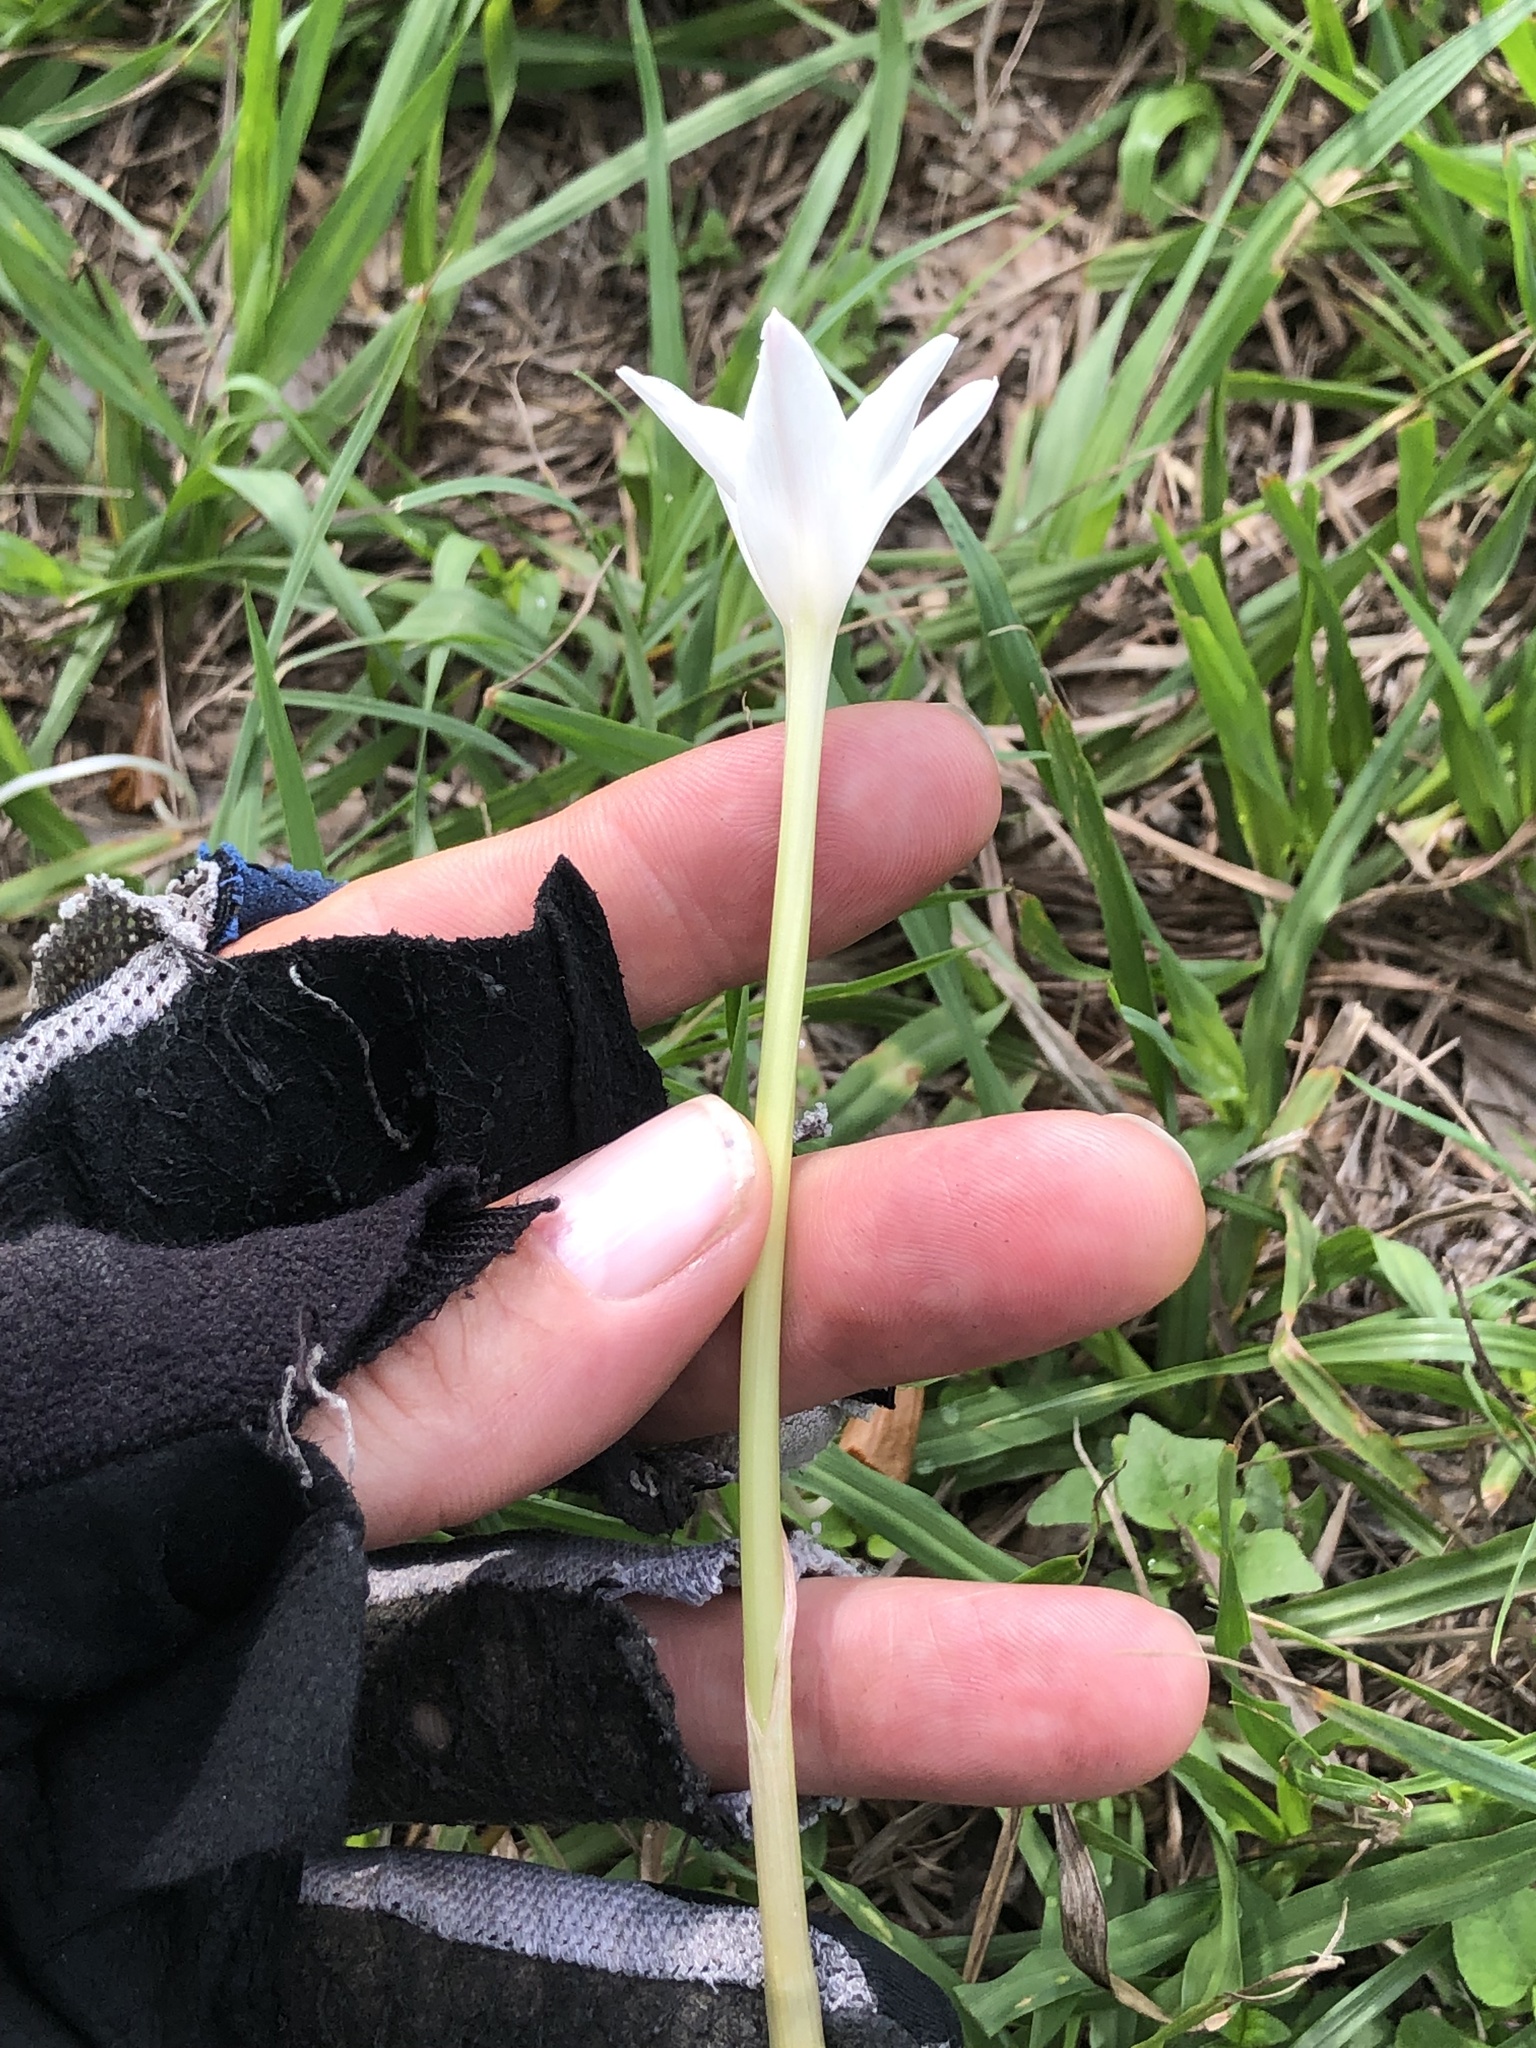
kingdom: Plantae
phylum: Tracheophyta
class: Liliopsida
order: Asparagales
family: Amaryllidaceae
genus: Zephyranthes
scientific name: Zephyranthes chlorosolen
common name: Evening rain-lily
